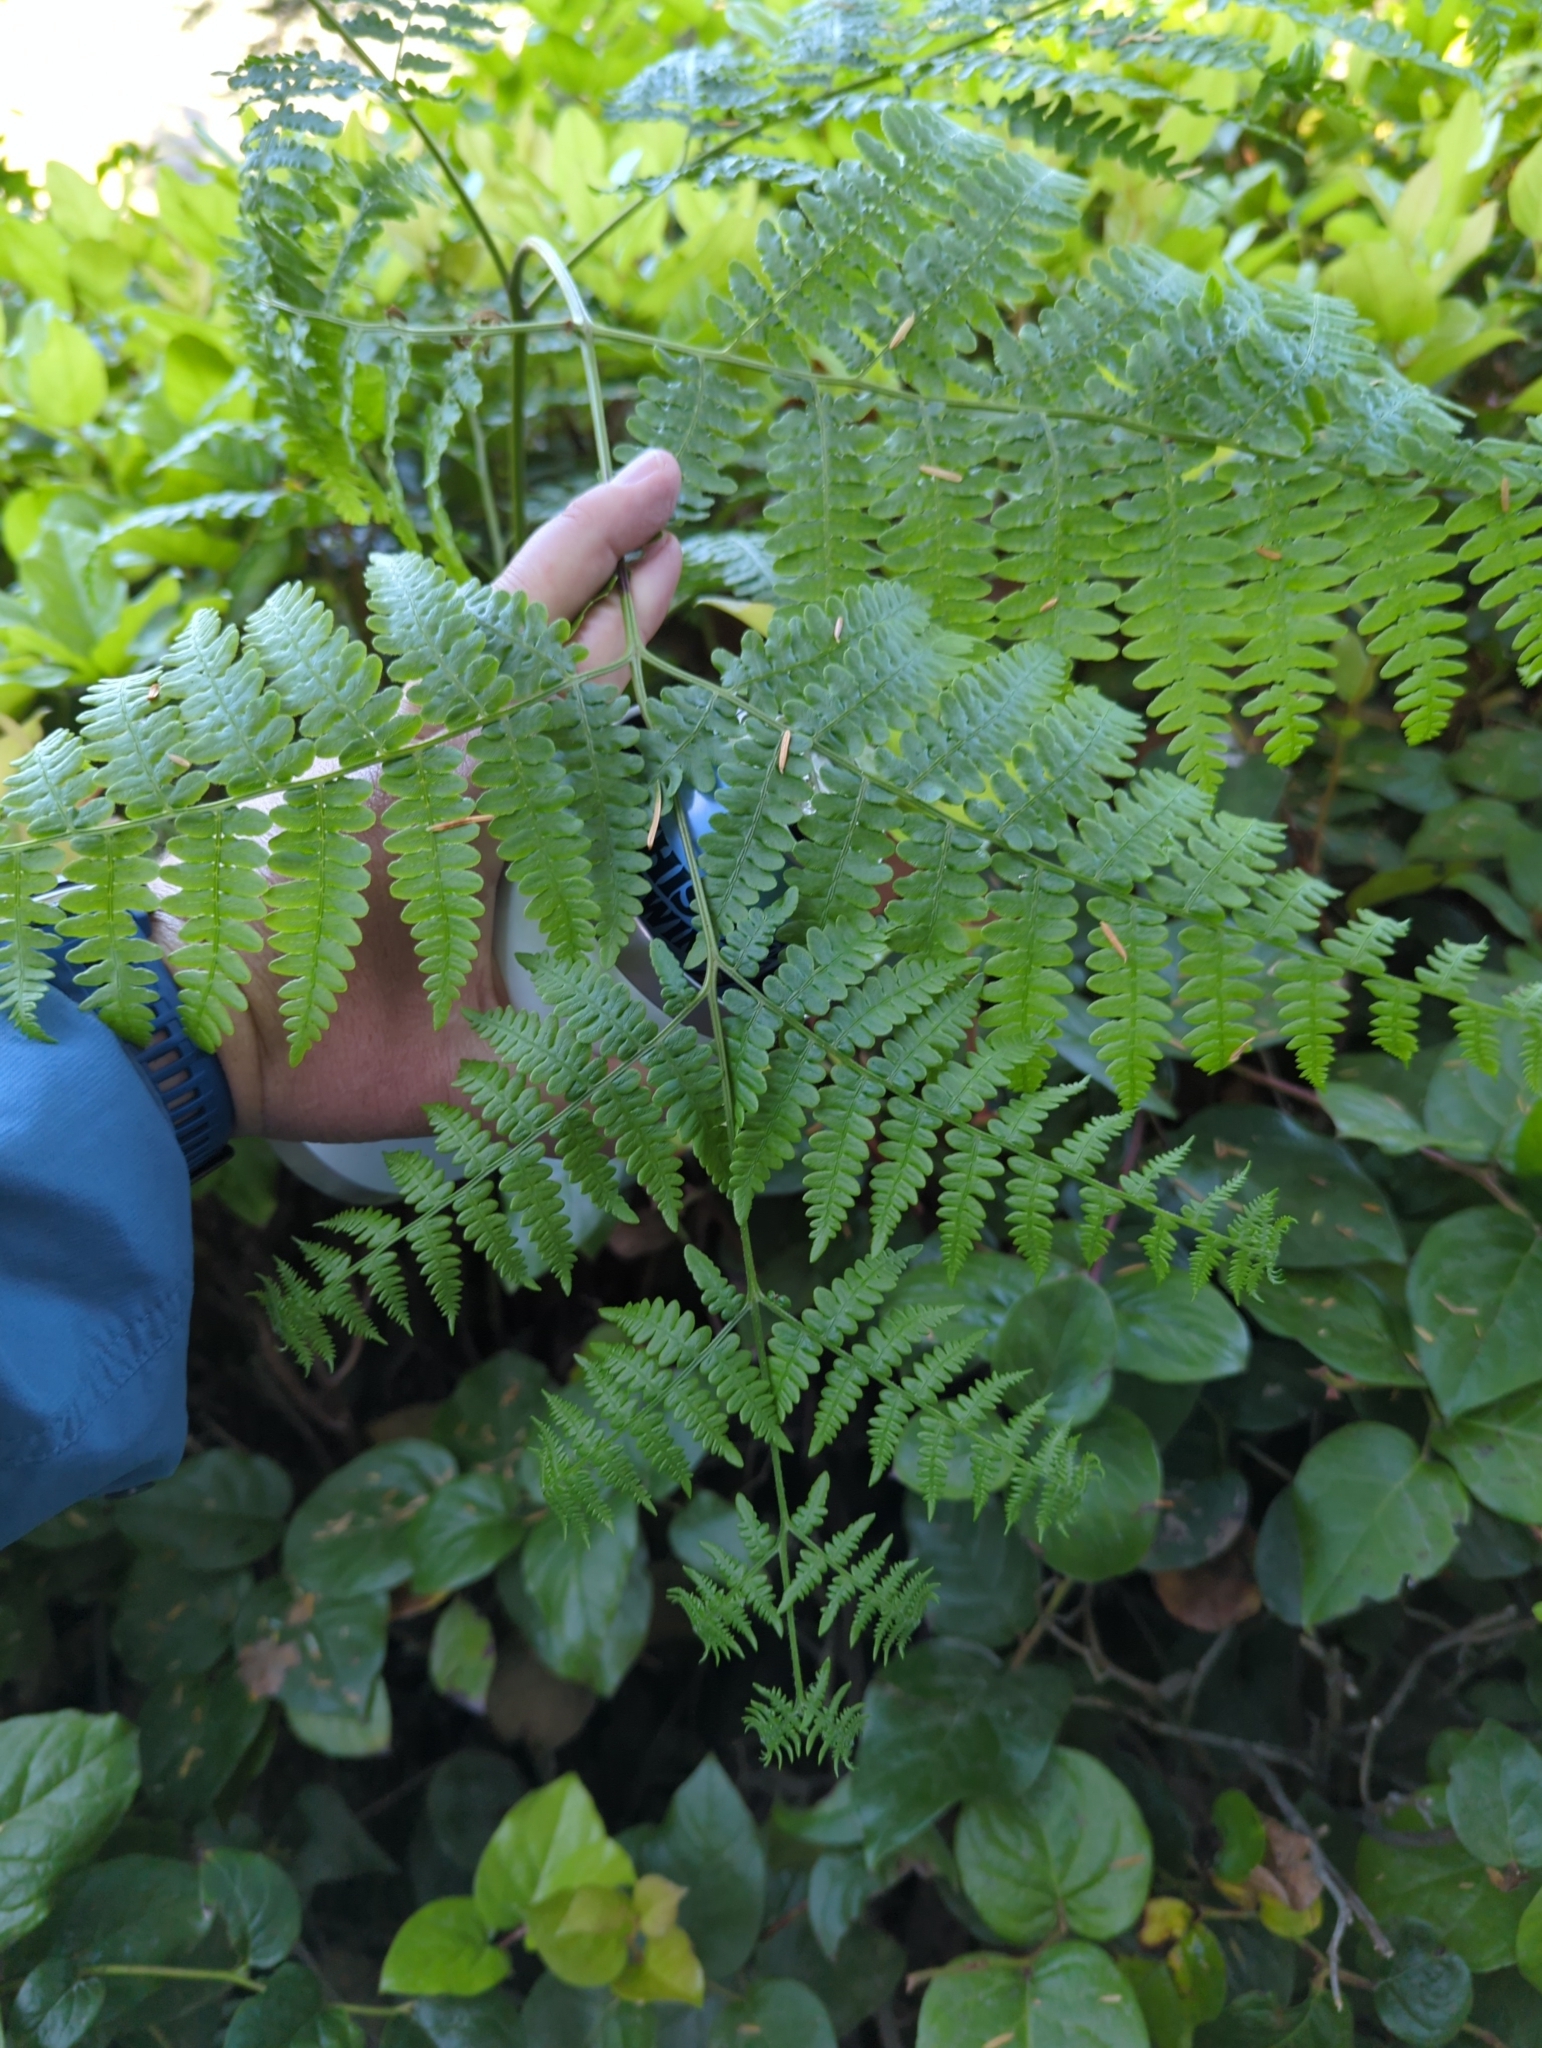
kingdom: Plantae
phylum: Tracheophyta
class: Polypodiopsida
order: Polypodiales
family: Dennstaedtiaceae
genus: Pteridium
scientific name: Pteridium aquilinum
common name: Bracken
